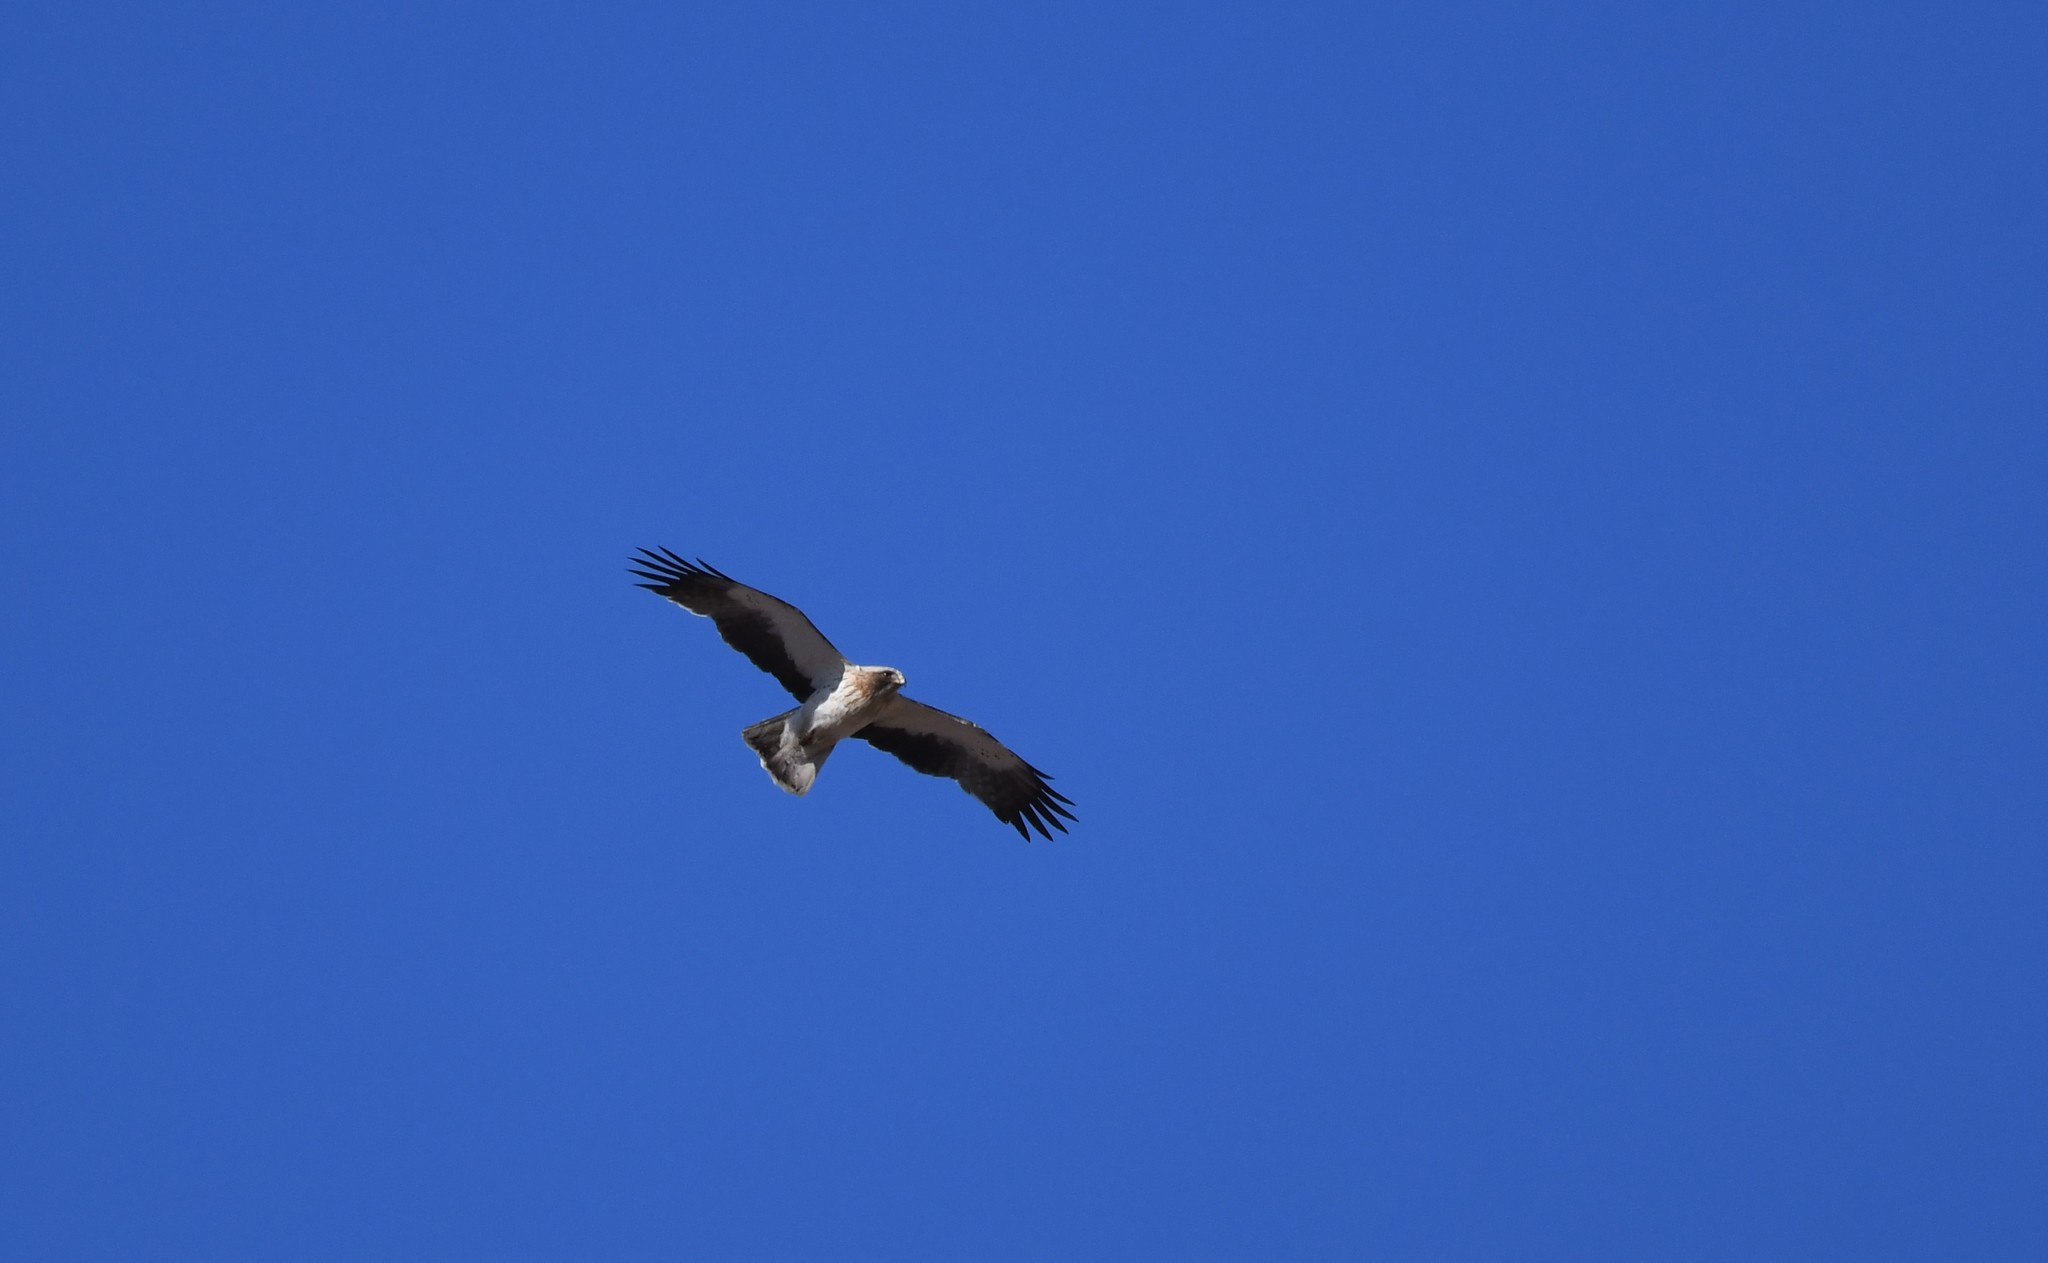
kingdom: Animalia
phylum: Chordata
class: Aves
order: Accipitriformes
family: Accipitridae
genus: Hieraaetus
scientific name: Hieraaetus pennatus
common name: Booted eagle
